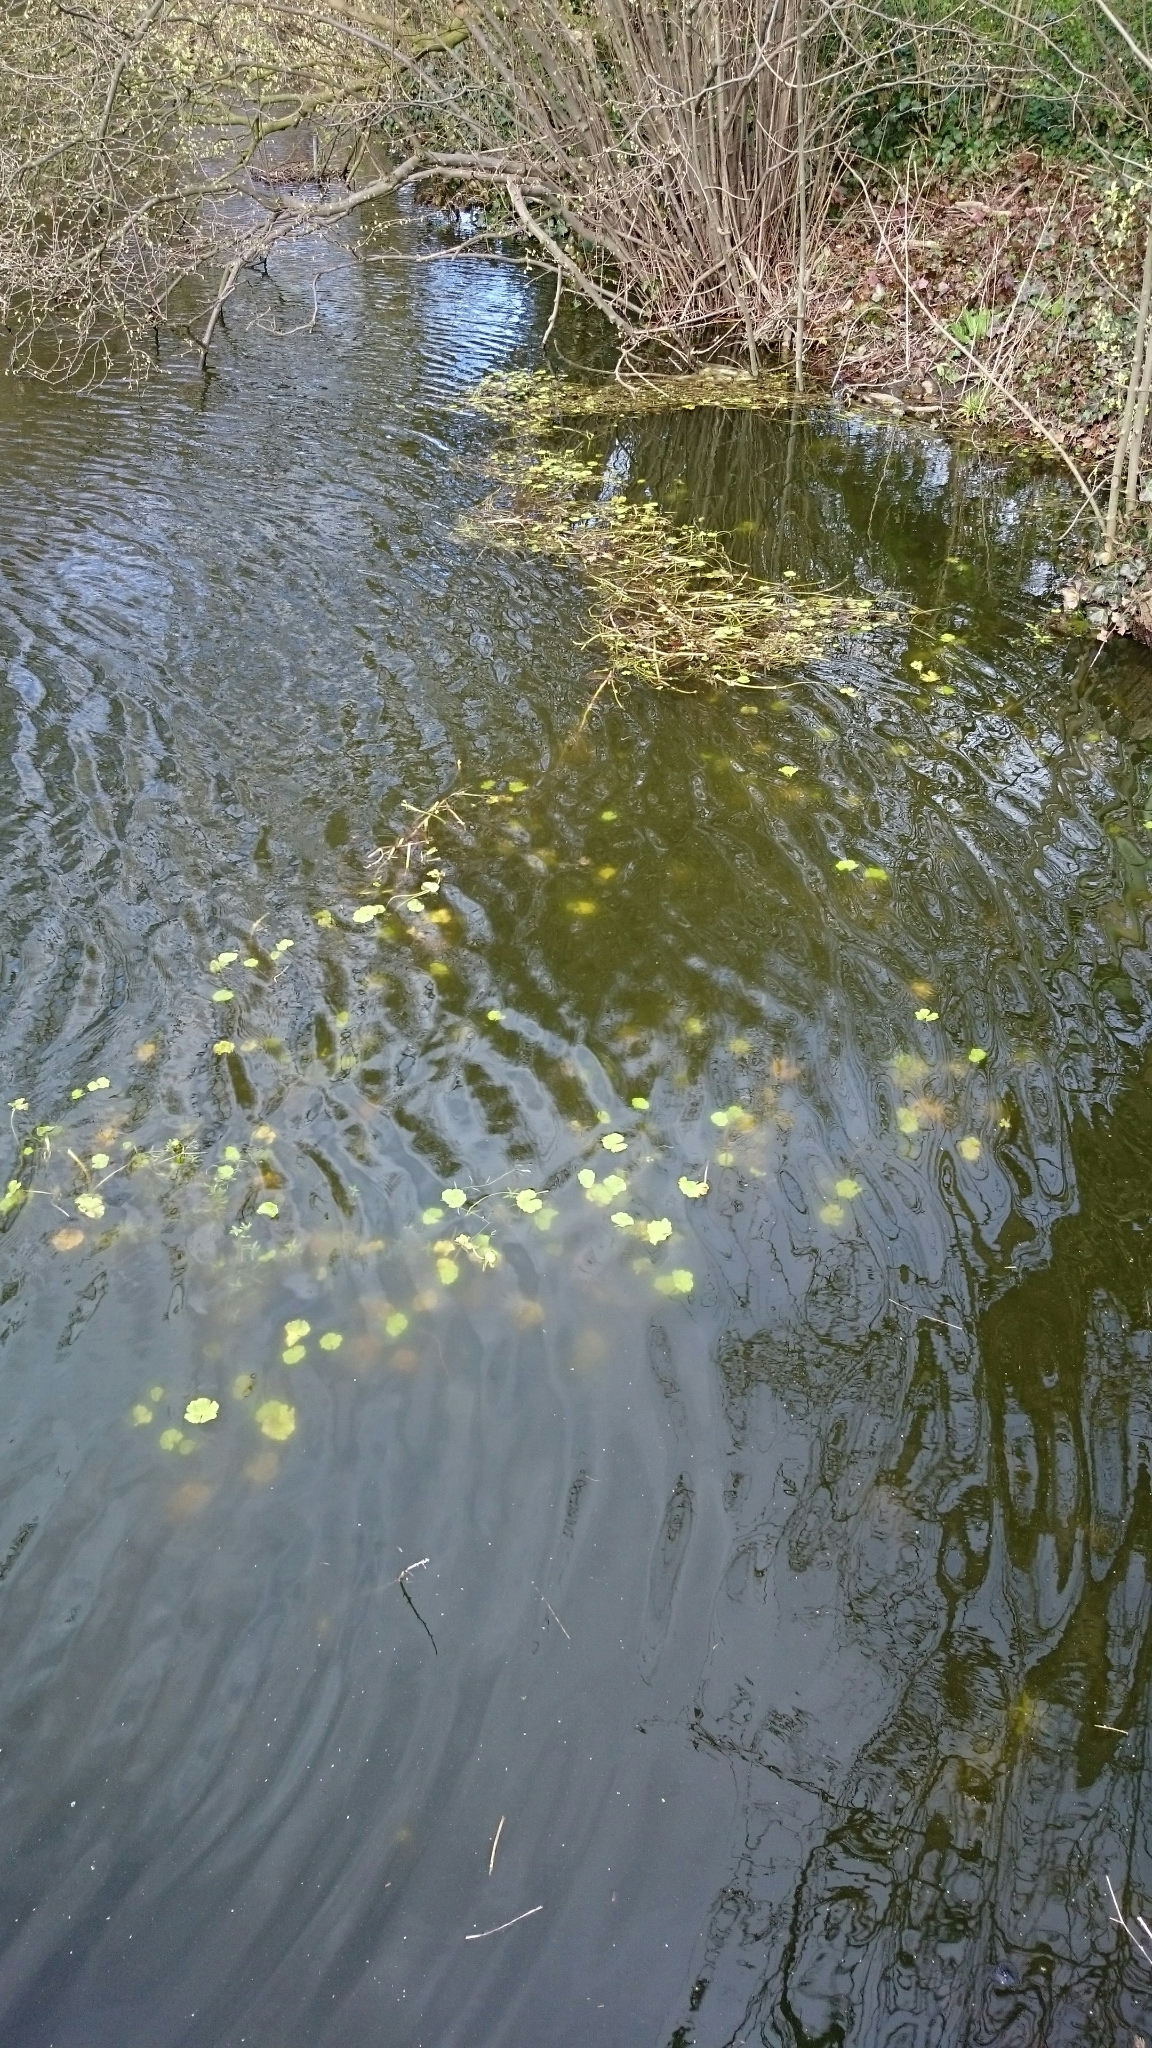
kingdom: Plantae
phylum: Tracheophyta
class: Magnoliopsida
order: Apiales
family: Araliaceae
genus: Hydrocotyle
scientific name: Hydrocotyle ranunculoides
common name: Floating pennywort
